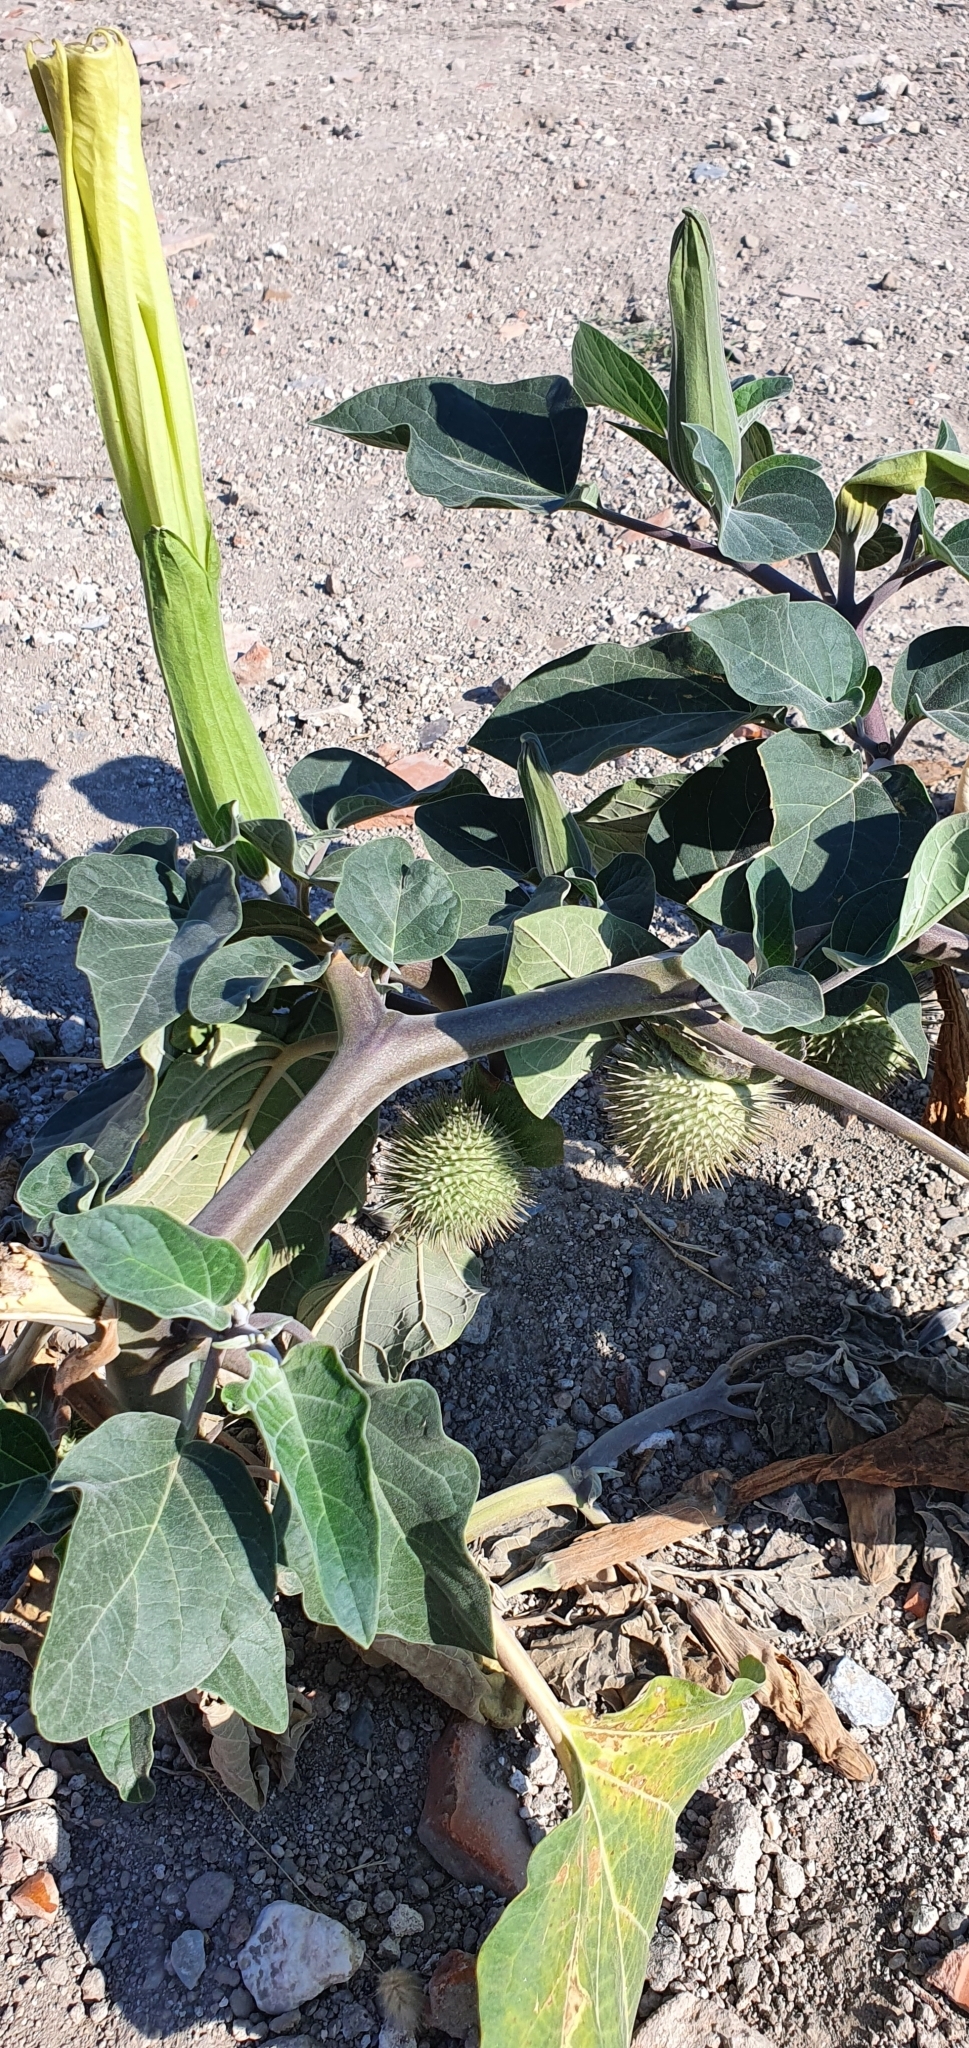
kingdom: Plantae
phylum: Tracheophyta
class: Magnoliopsida
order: Solanales
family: Solanaceae
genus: Datura
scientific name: Datura wrightii
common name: Sacred thorn-apple
